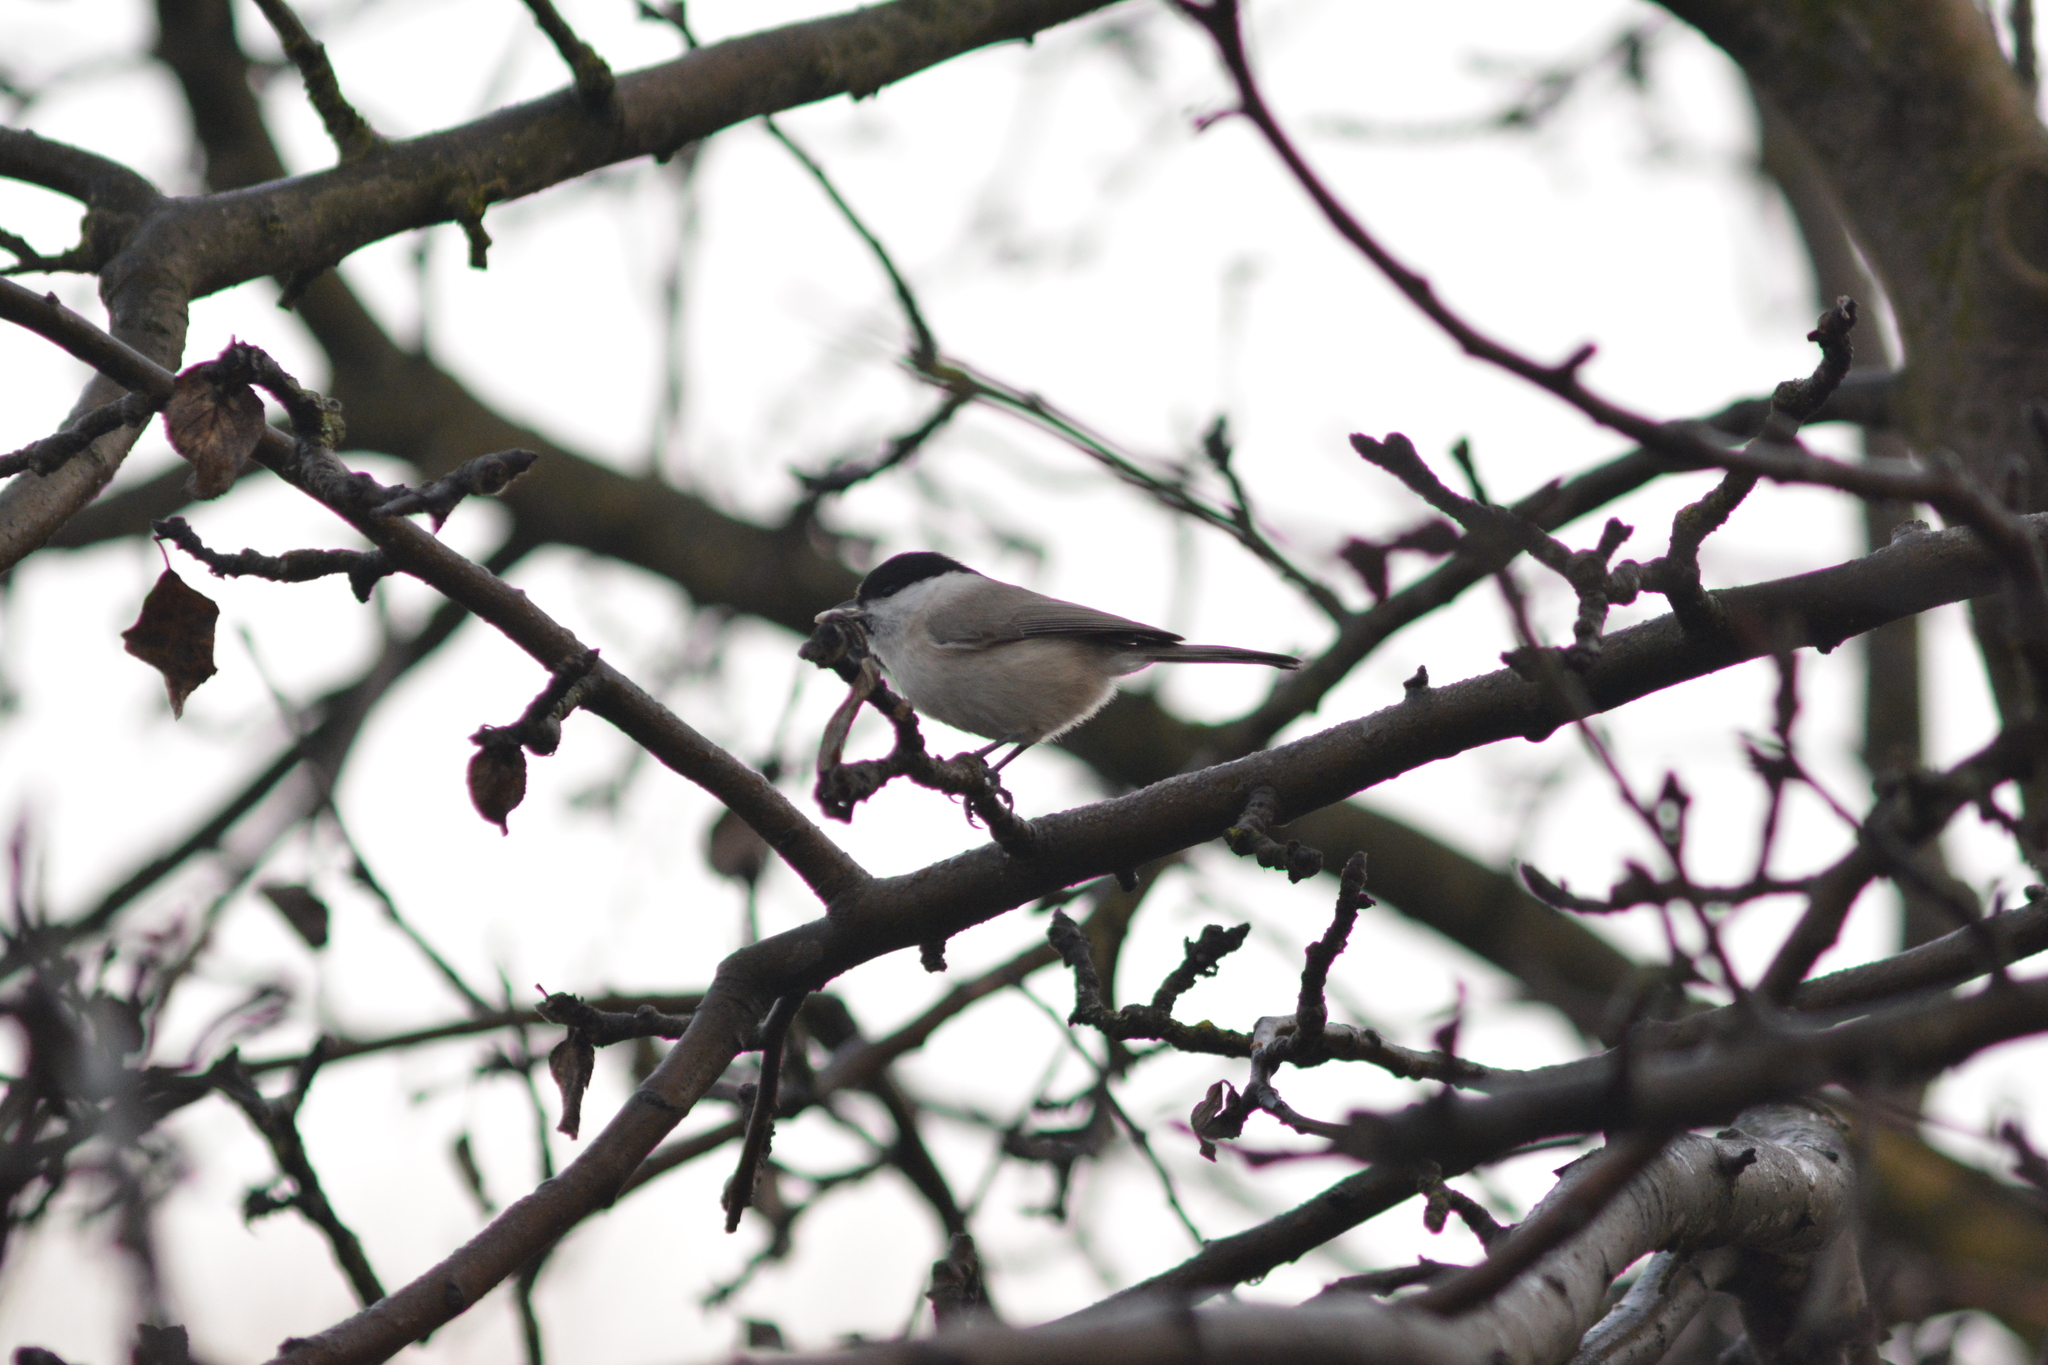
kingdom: Animalia
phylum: Chordata
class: Aves
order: Passeriformes
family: Paridae
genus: Poecile
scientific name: Poecile palustris
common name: Marsh tit
